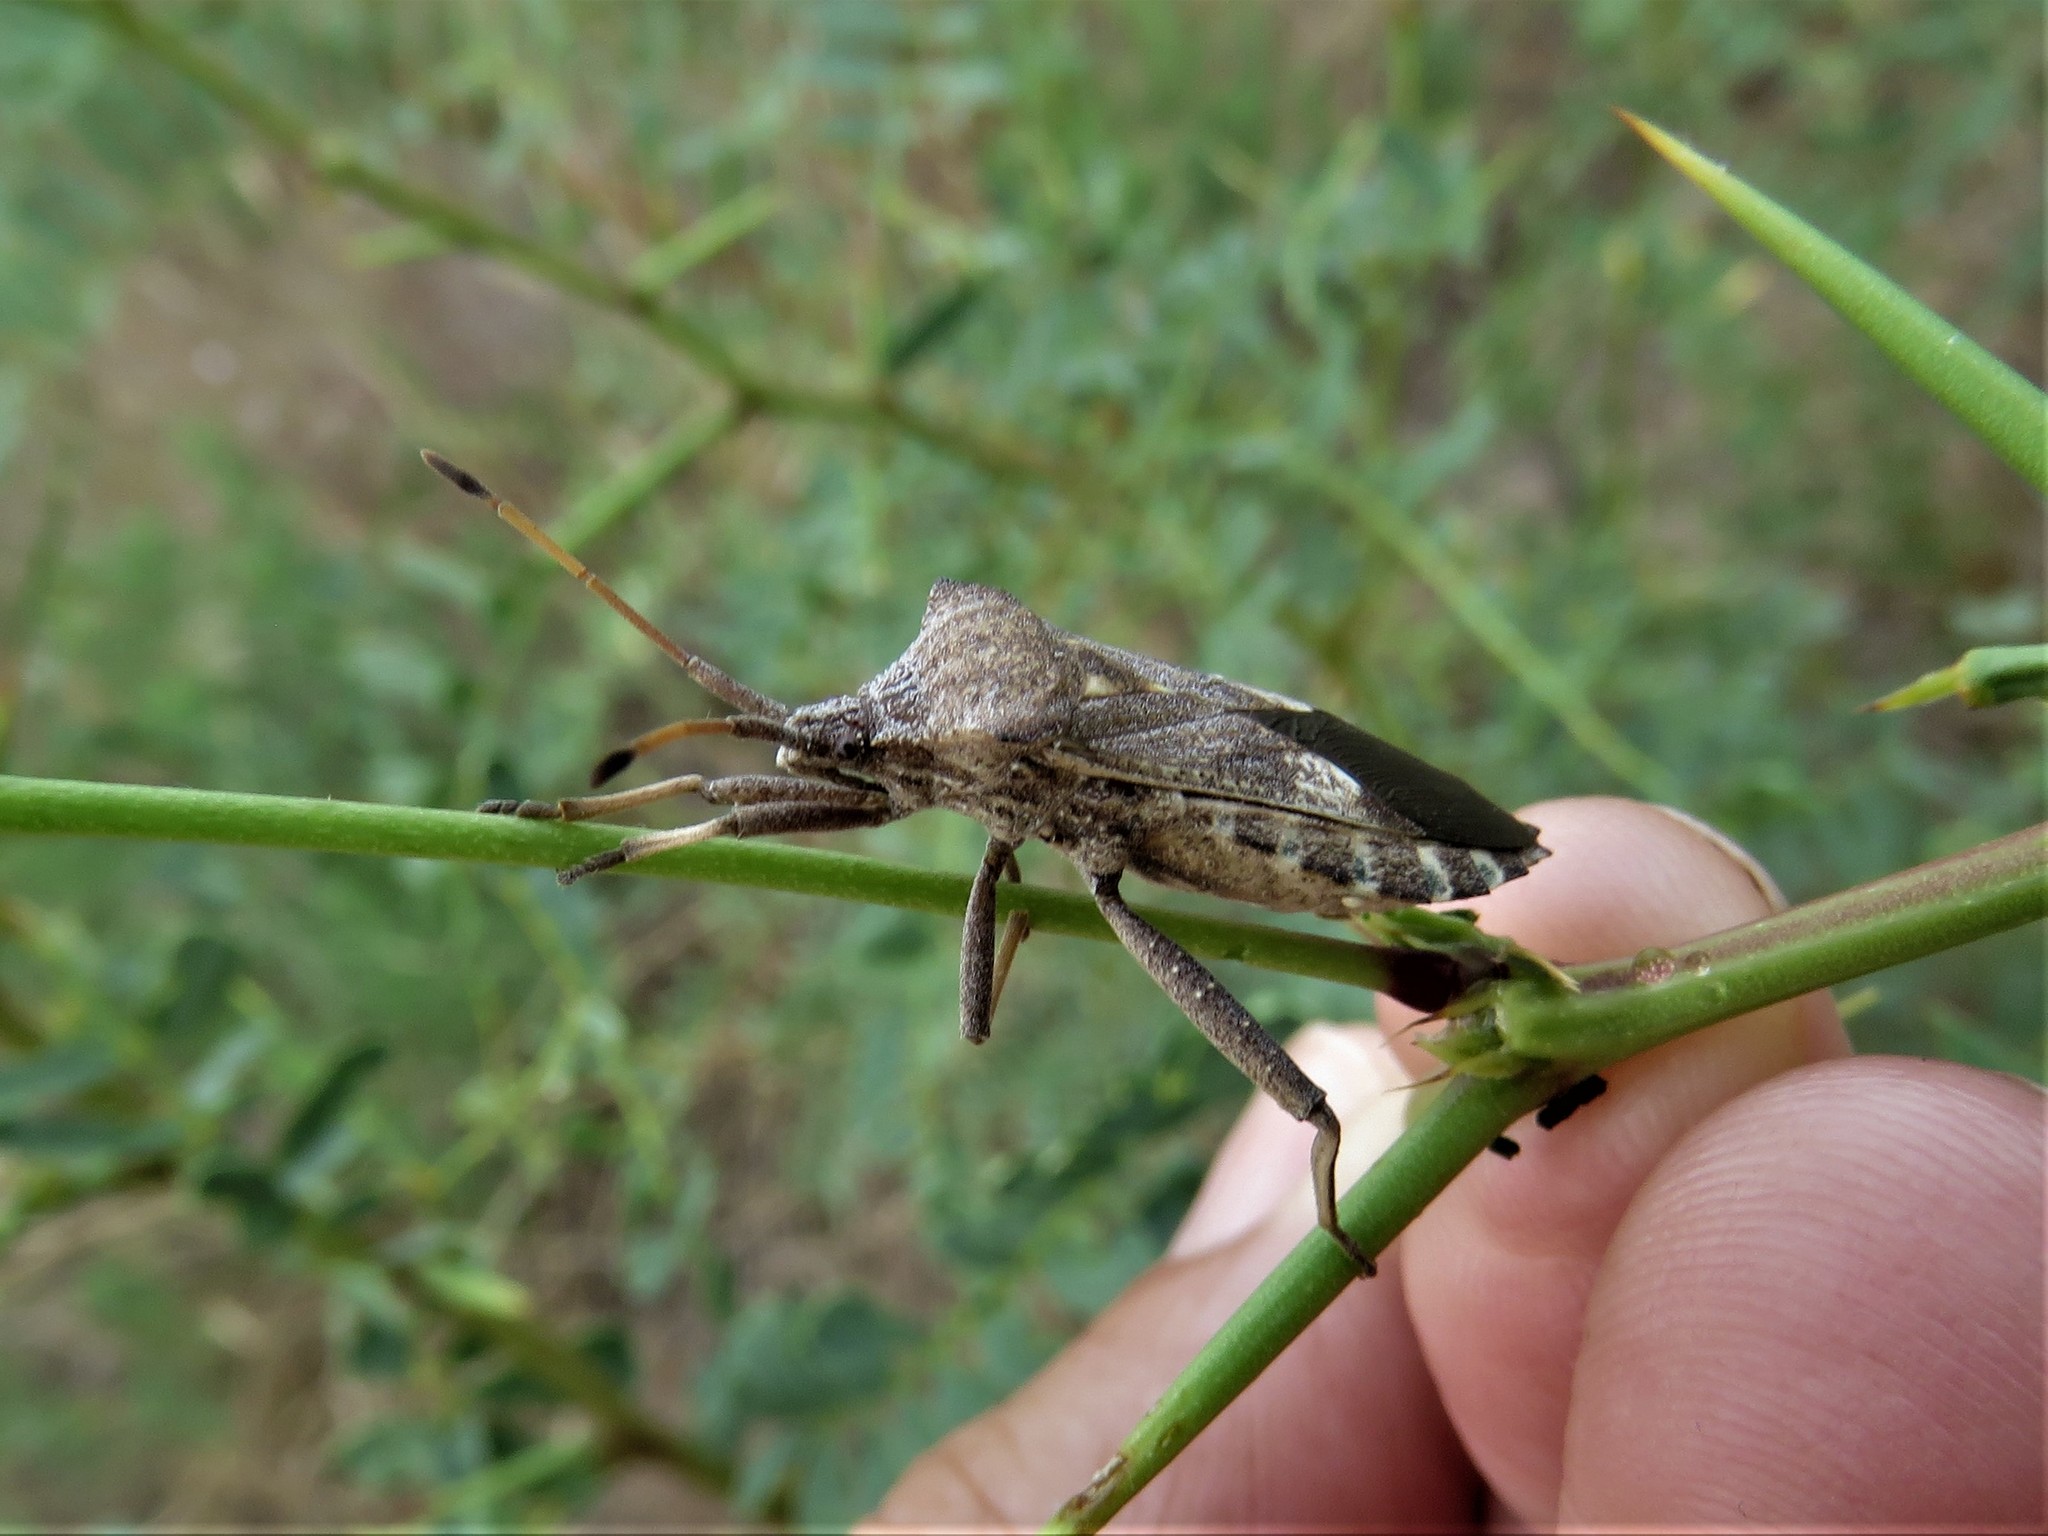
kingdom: Animalia
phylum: Arthropoda
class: Insecta
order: Hemiptera
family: Coreidae
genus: Mozena
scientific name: Mozena obtusa
